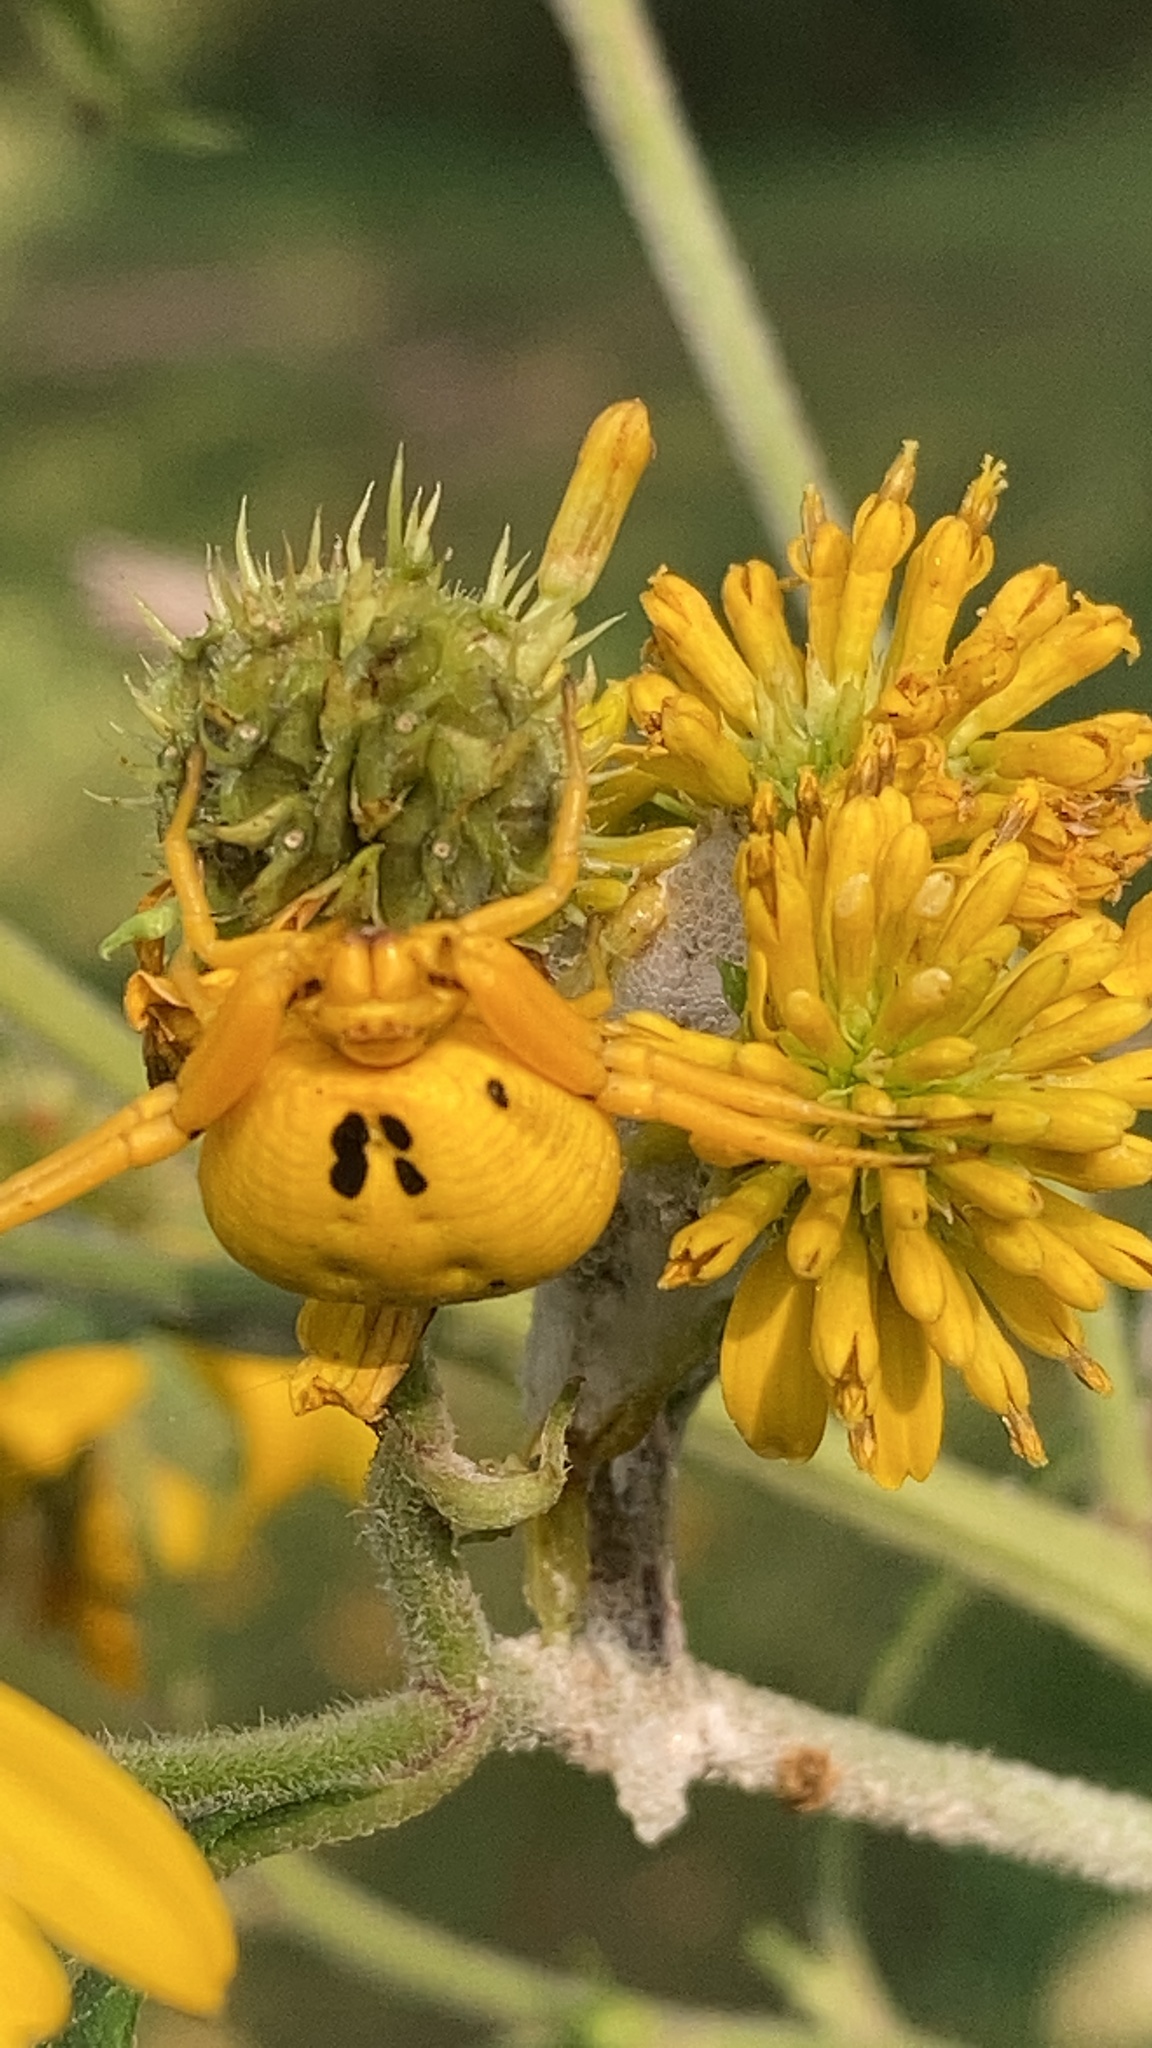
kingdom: Animalia
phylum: Arthropoda
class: Arachnida
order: Araneae
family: Thomisidae
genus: Misumenoides
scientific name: Misumenoides formosipes
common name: White-banded crab spider
